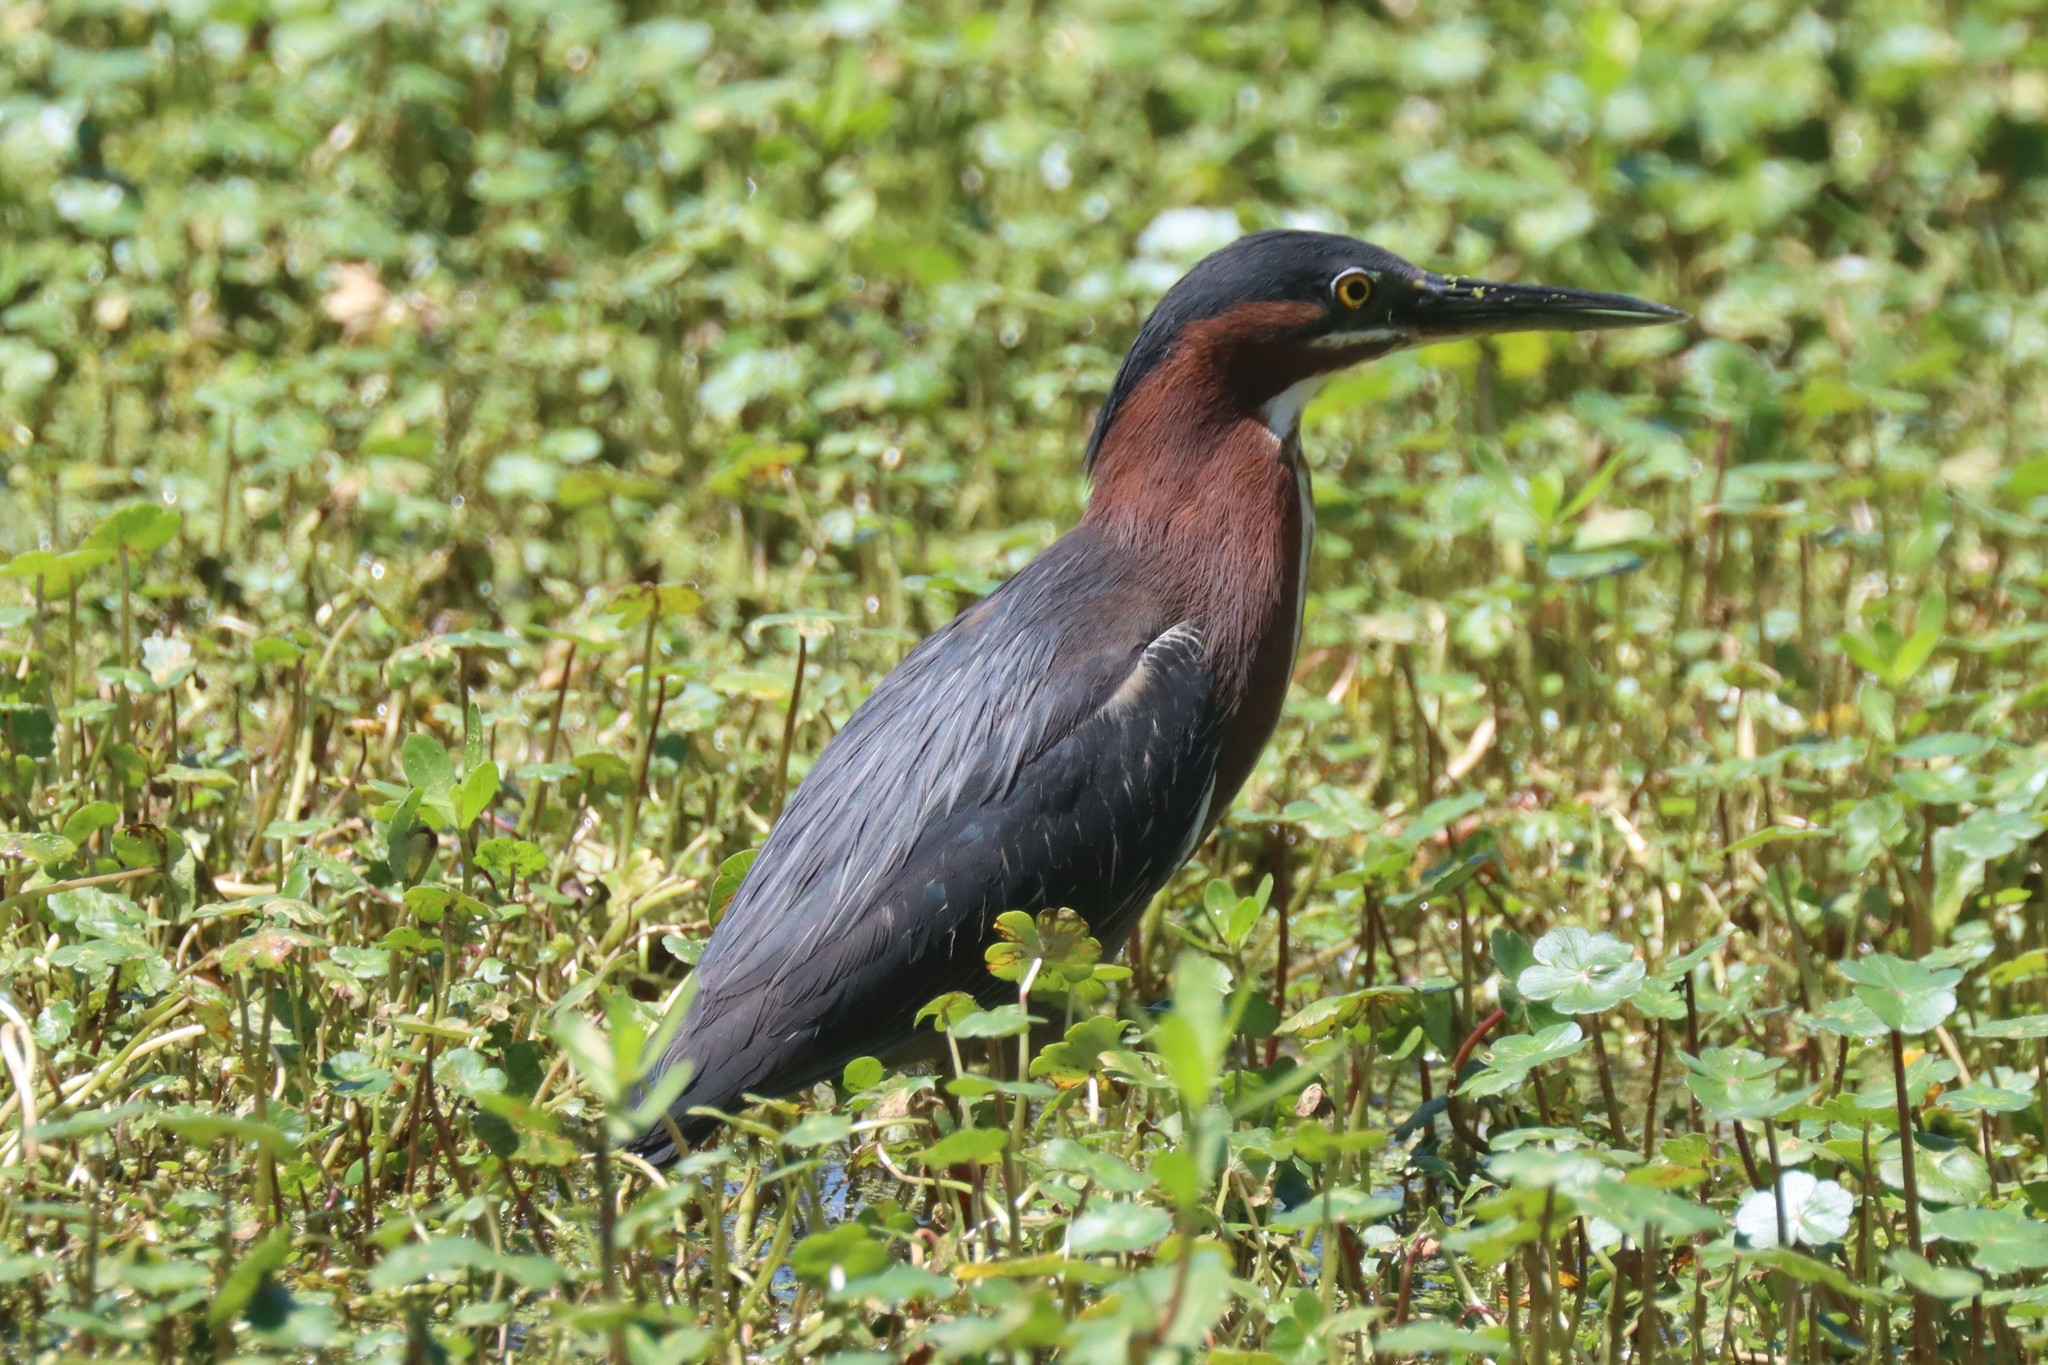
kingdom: Animalia
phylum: Chordata
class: Aves
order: Pelecaniformes
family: Ardeidae
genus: Butorides
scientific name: Butorides virescens
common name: Green heron
